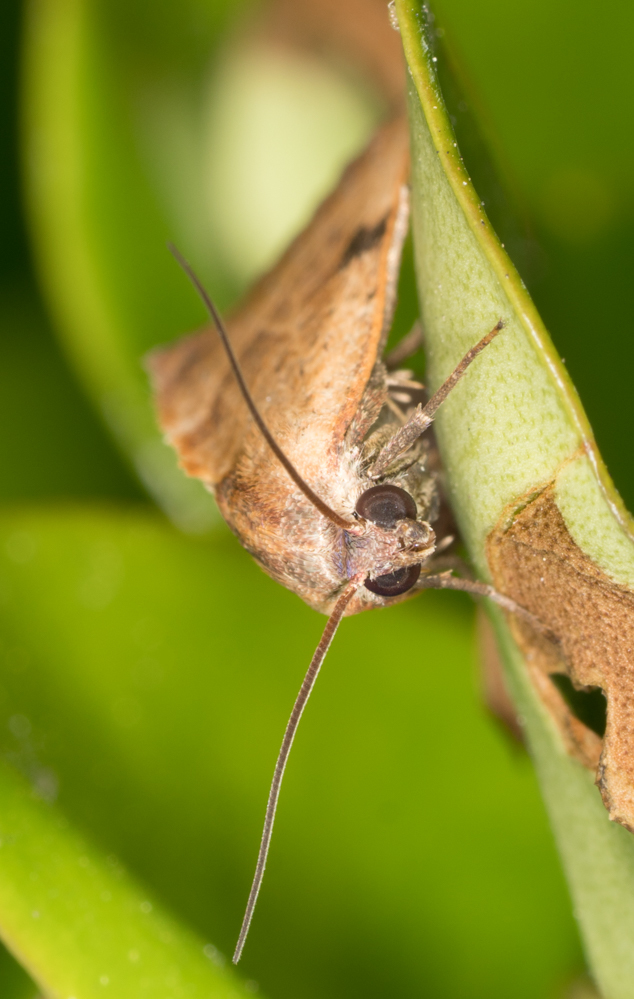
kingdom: Animalia
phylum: Arthropoda
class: Insecta
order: Lepidoptera
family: Noctuidae
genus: Galgula
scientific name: Galgula partita
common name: Wedgeling
